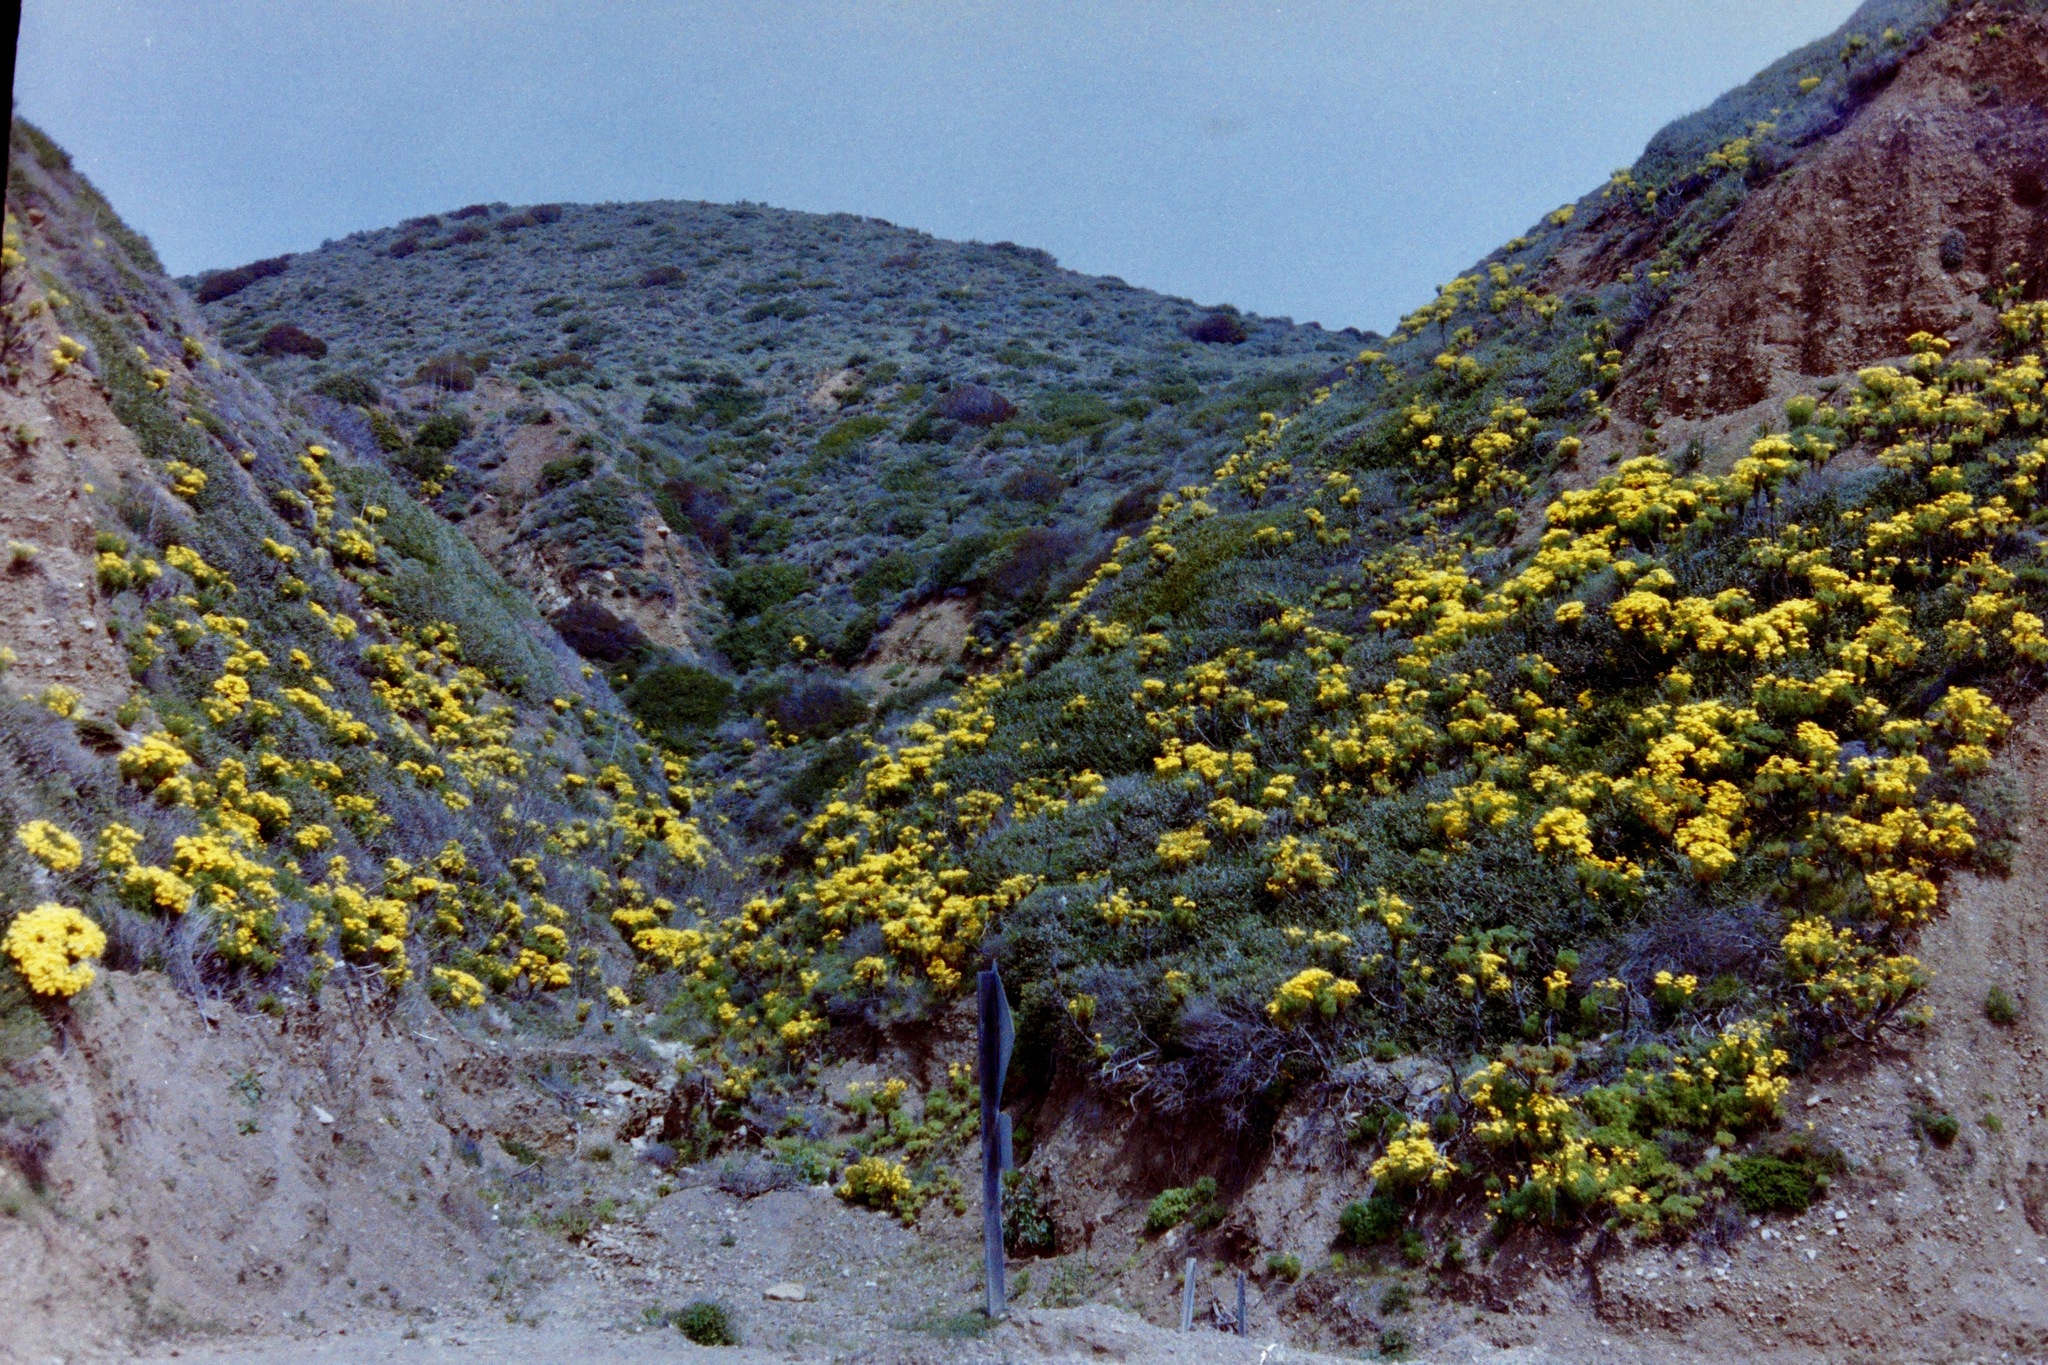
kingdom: Plantae
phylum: Tracheophyta
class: Magnoliopsida
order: Asterales
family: Asteraceae
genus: Coreopsis
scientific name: Coreopsis gigantea
